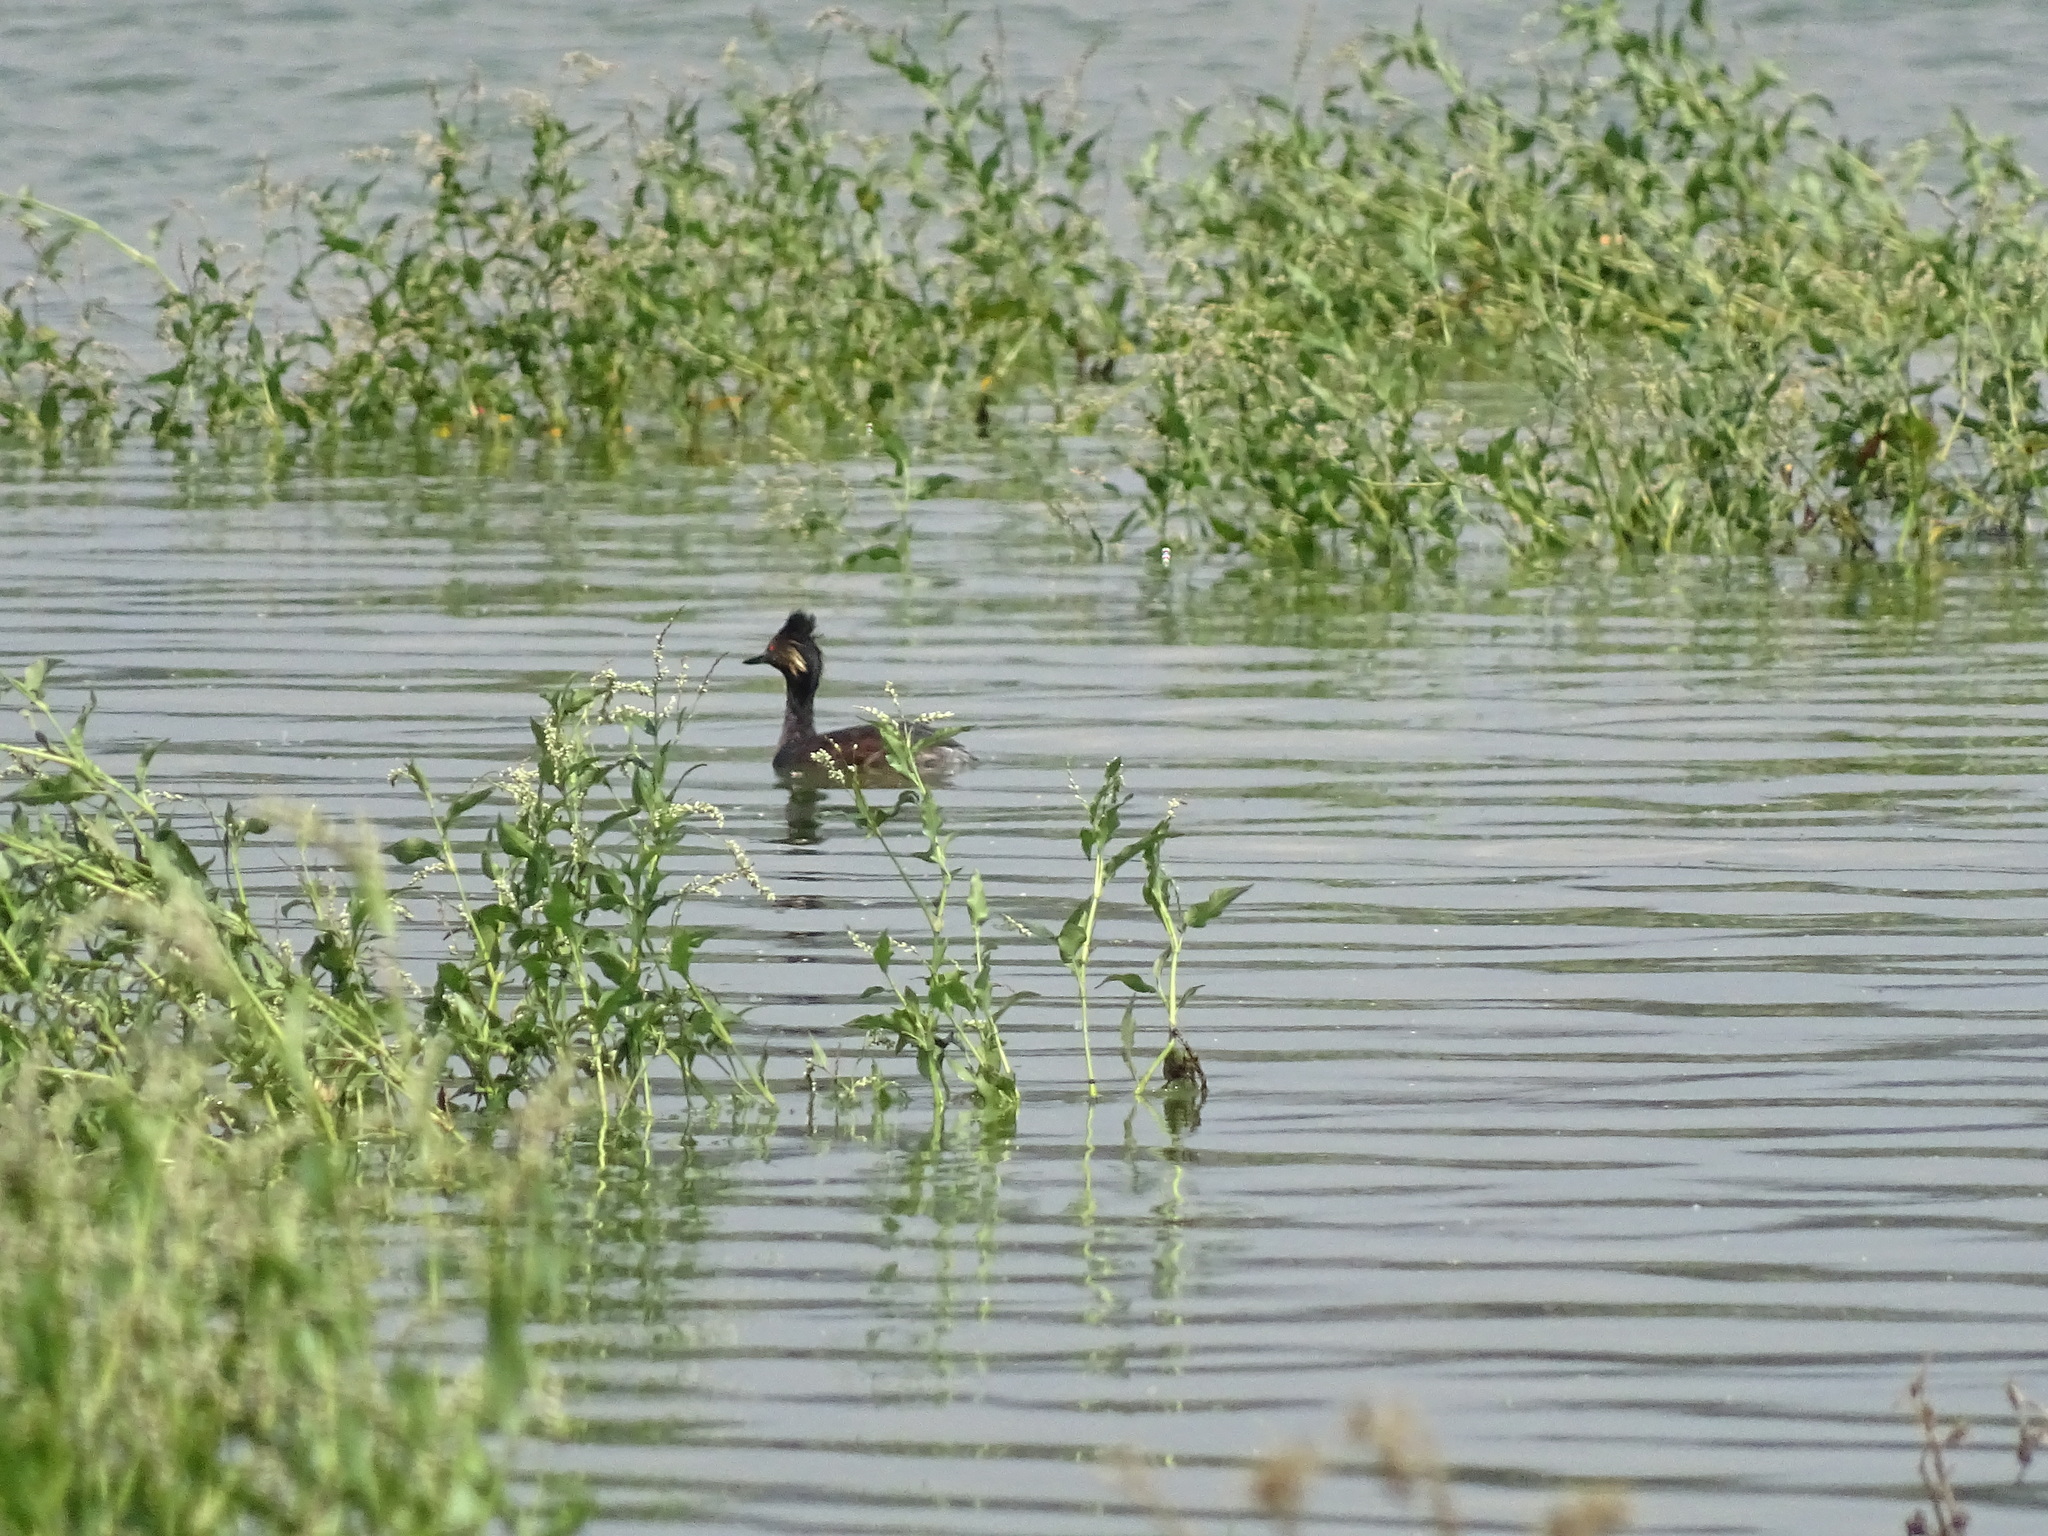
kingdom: Animalia
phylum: Chordata
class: Aves
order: Podicipediformes
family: Podicipedidae
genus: Podiceps
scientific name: Podiceps nigricollis
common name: Black-necked grebe
